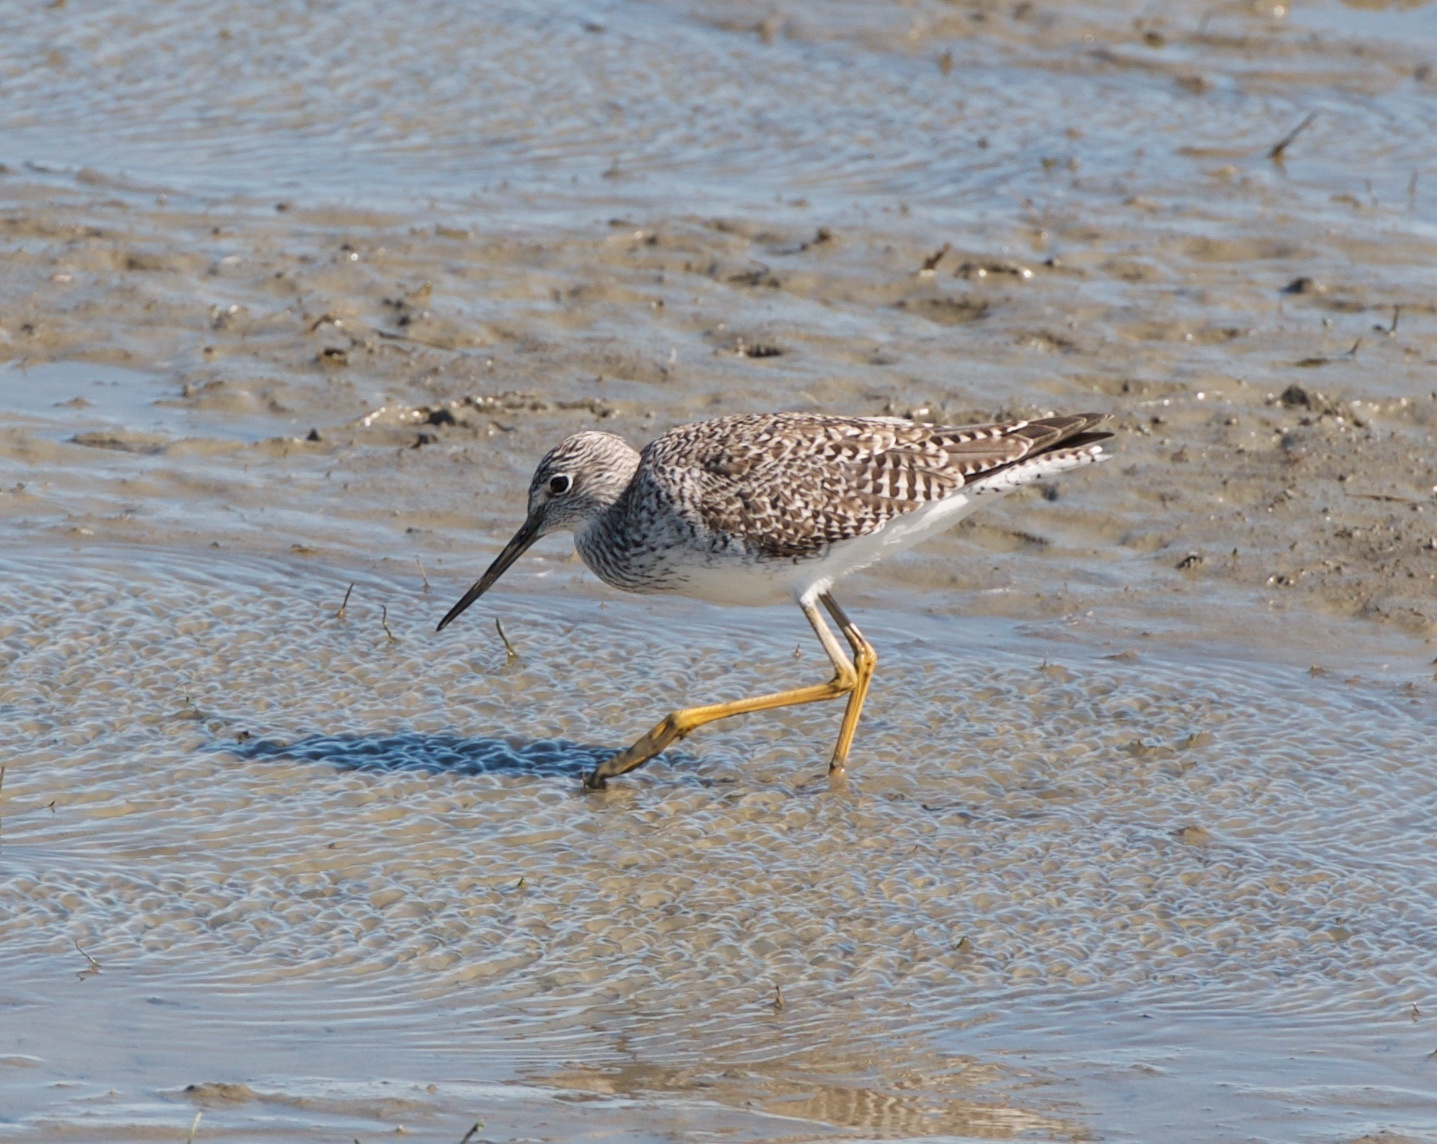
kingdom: Animalia
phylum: Chordata
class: Aves
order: Charadriiformes
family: Scolopacidae
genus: Tringa
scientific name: Tringa melanoleuca
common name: Greater yellowlegs
